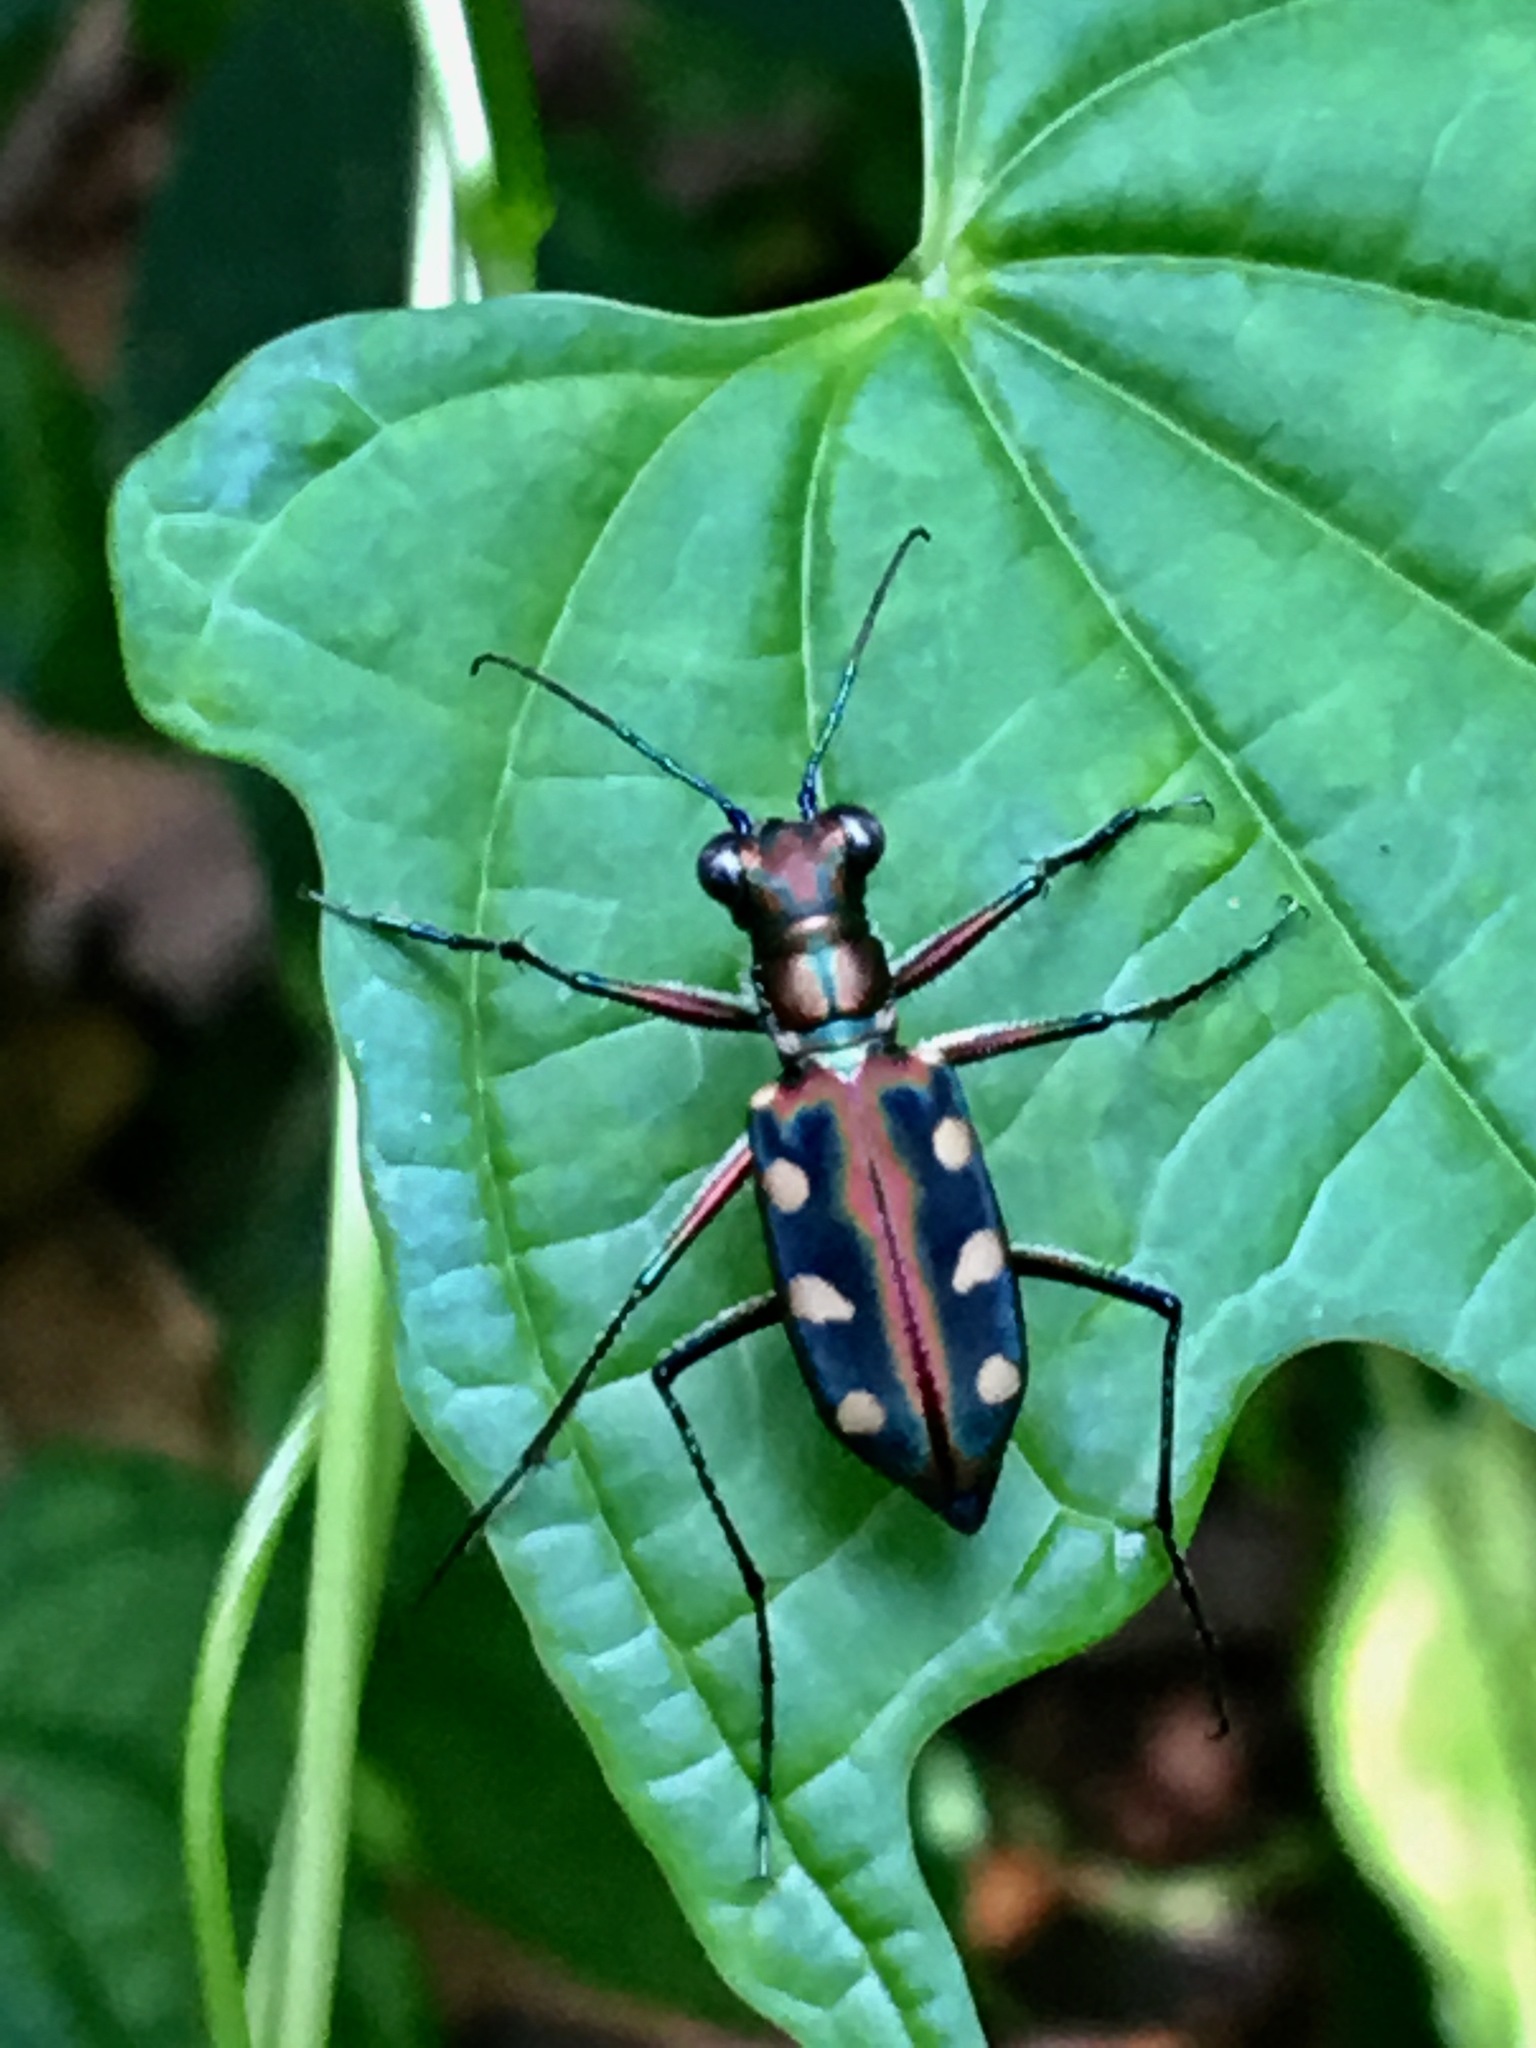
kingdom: Animalia
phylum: Arthropoda
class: Insecta
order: Coleoptera
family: Carabidae
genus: Cicindela
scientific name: Cicindela aurulenta
